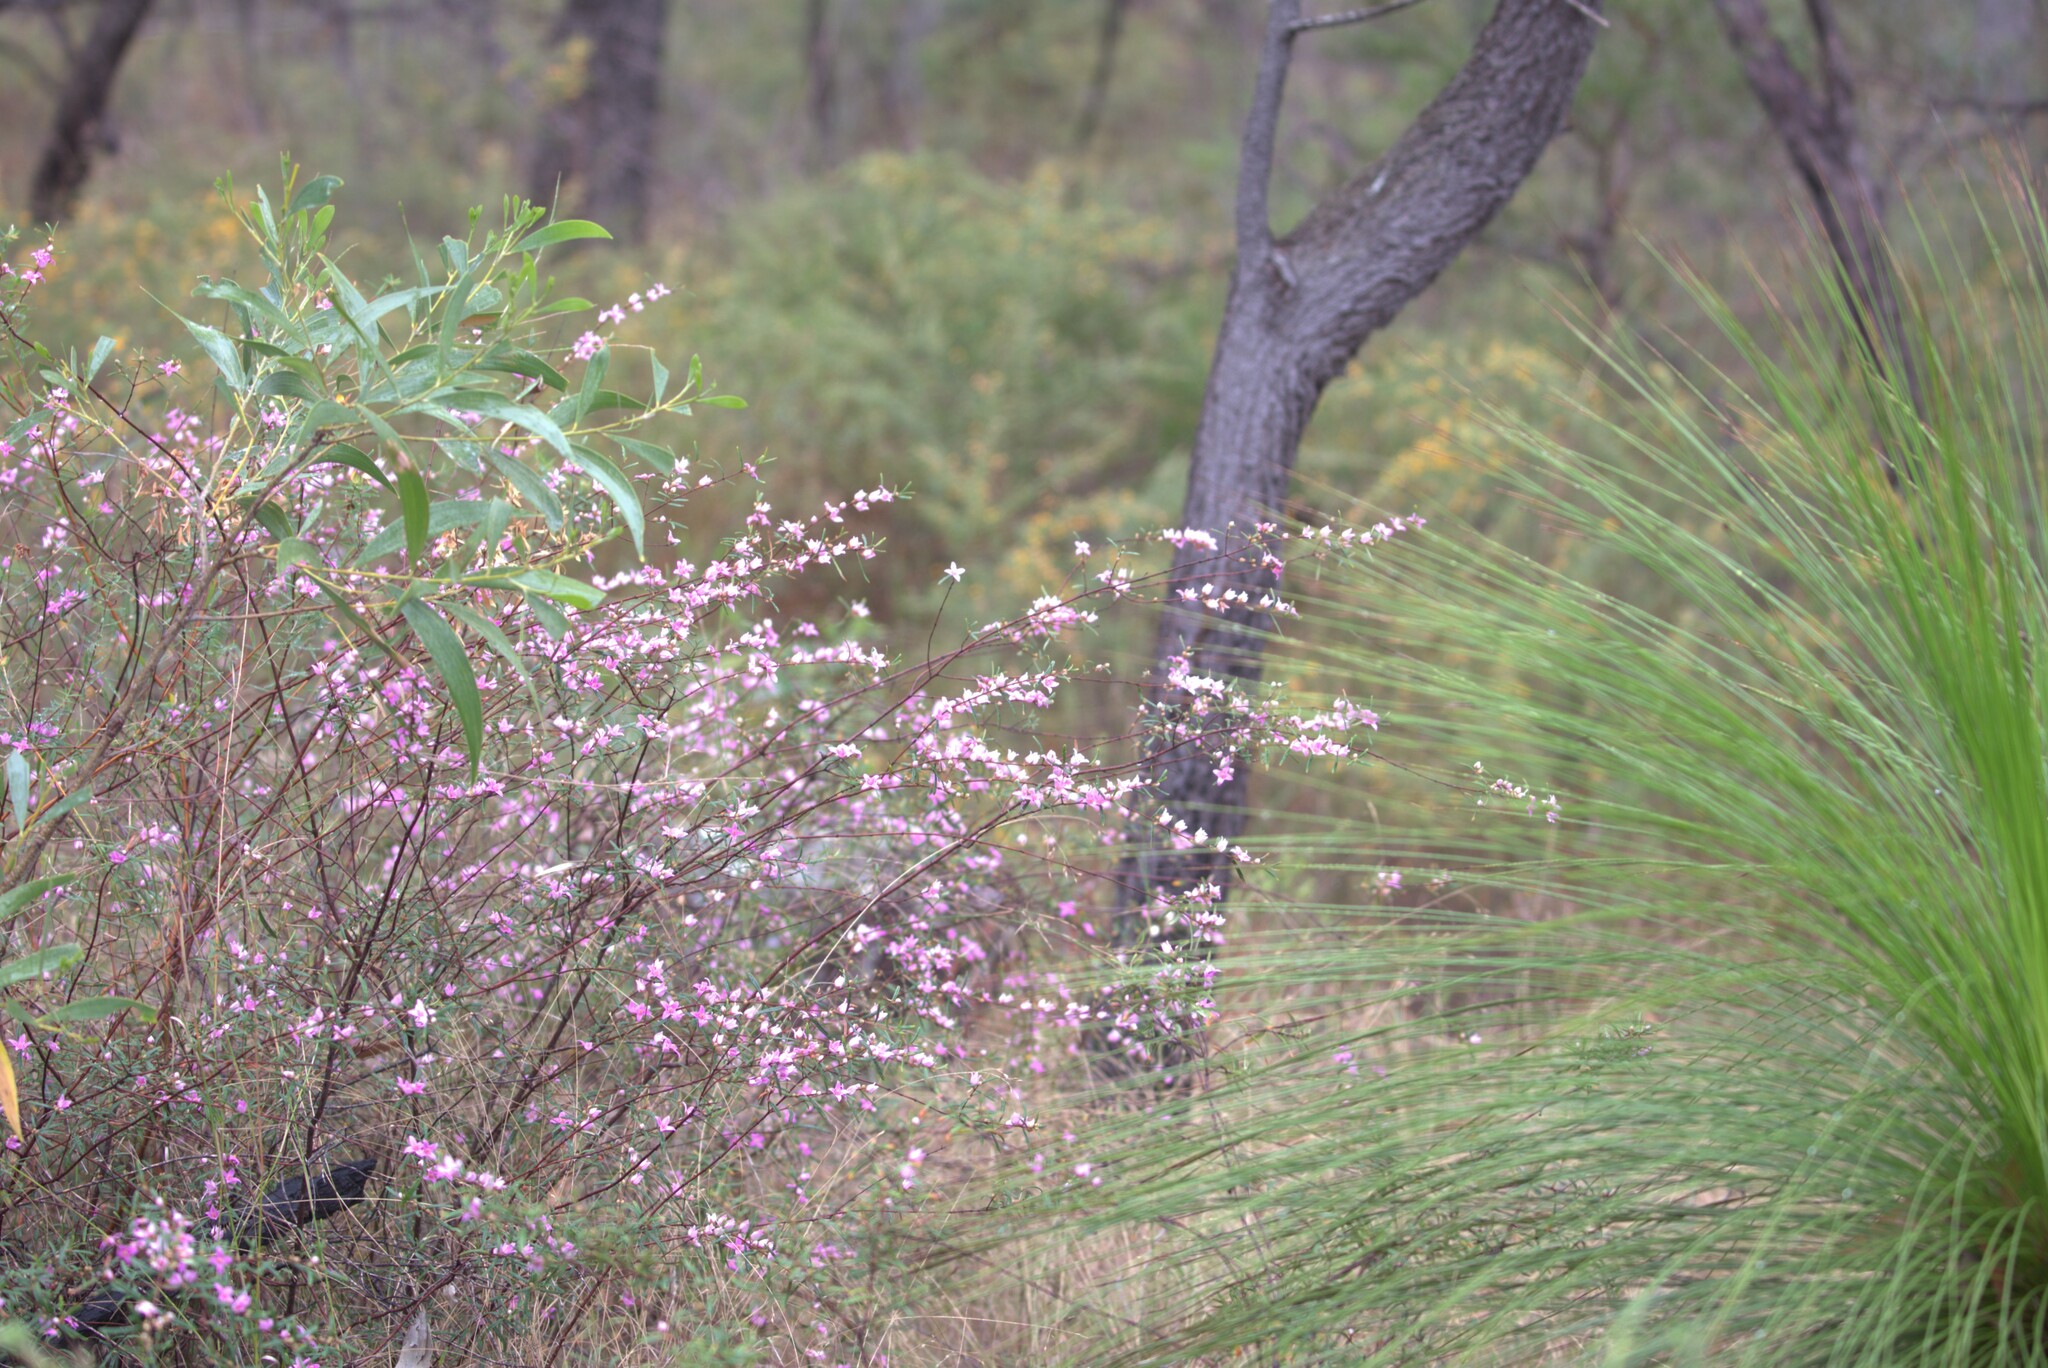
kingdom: Plantae
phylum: Tracheophyta
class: Magnoliopsida
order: Sapindales
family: Rutaceae
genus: Boronia
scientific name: Boronia rosmarinifolia
